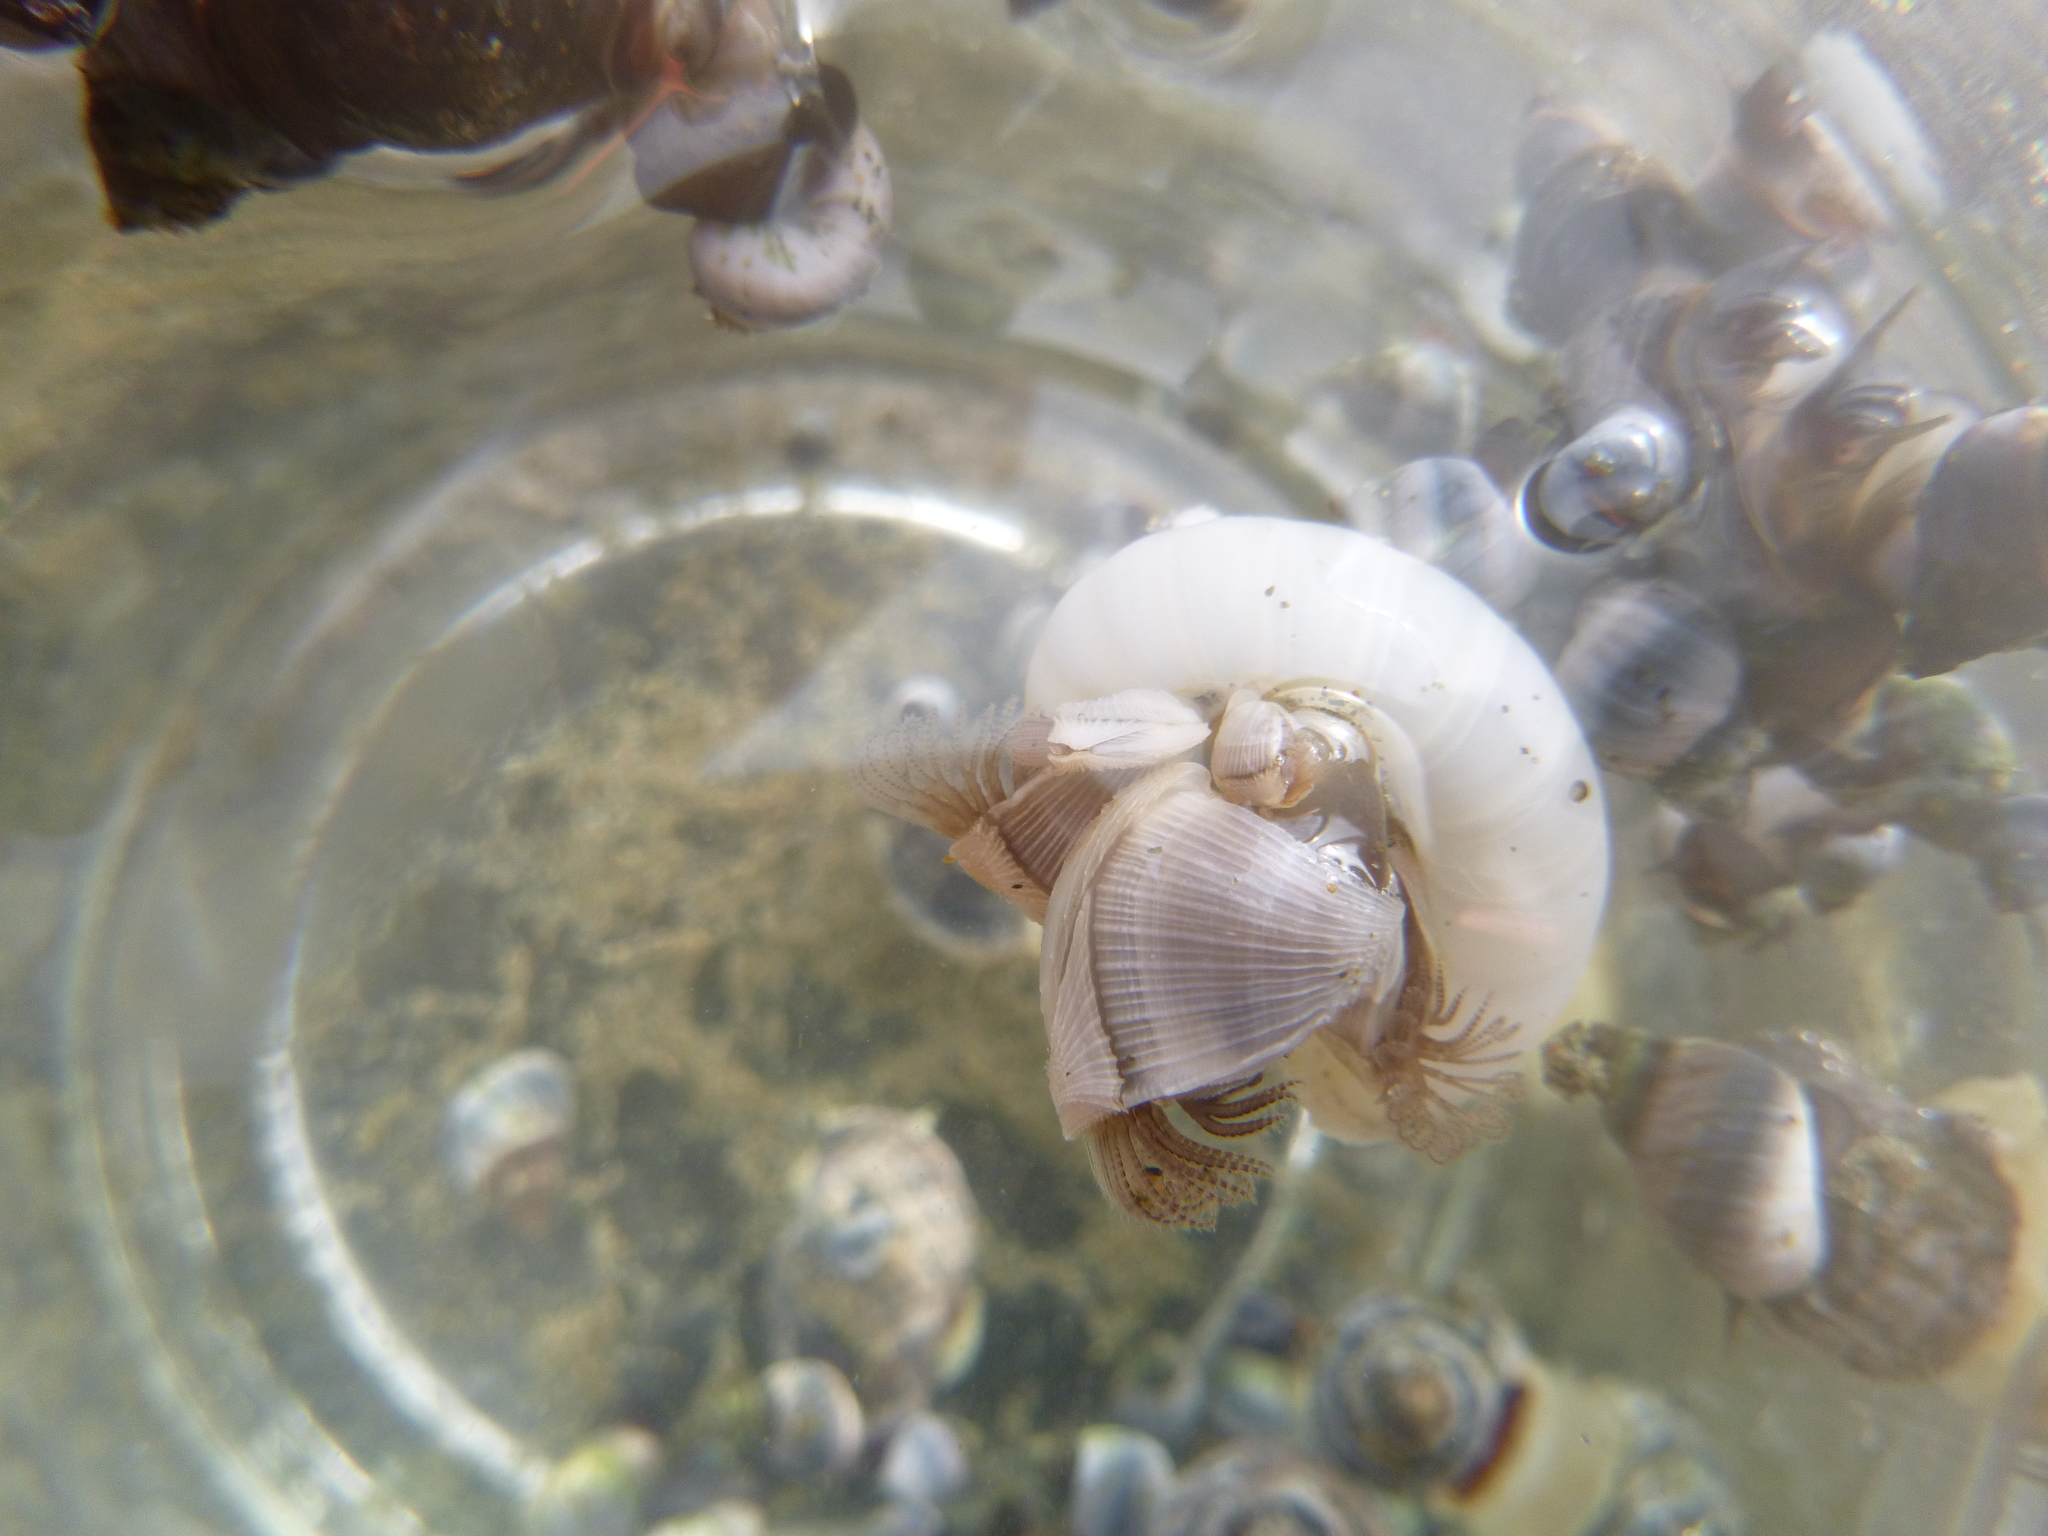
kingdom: Animalia
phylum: Arthropoda
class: Maxillopoda
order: Pedunculata
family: Lepadidae
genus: Lepas
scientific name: Lepas pectinata
